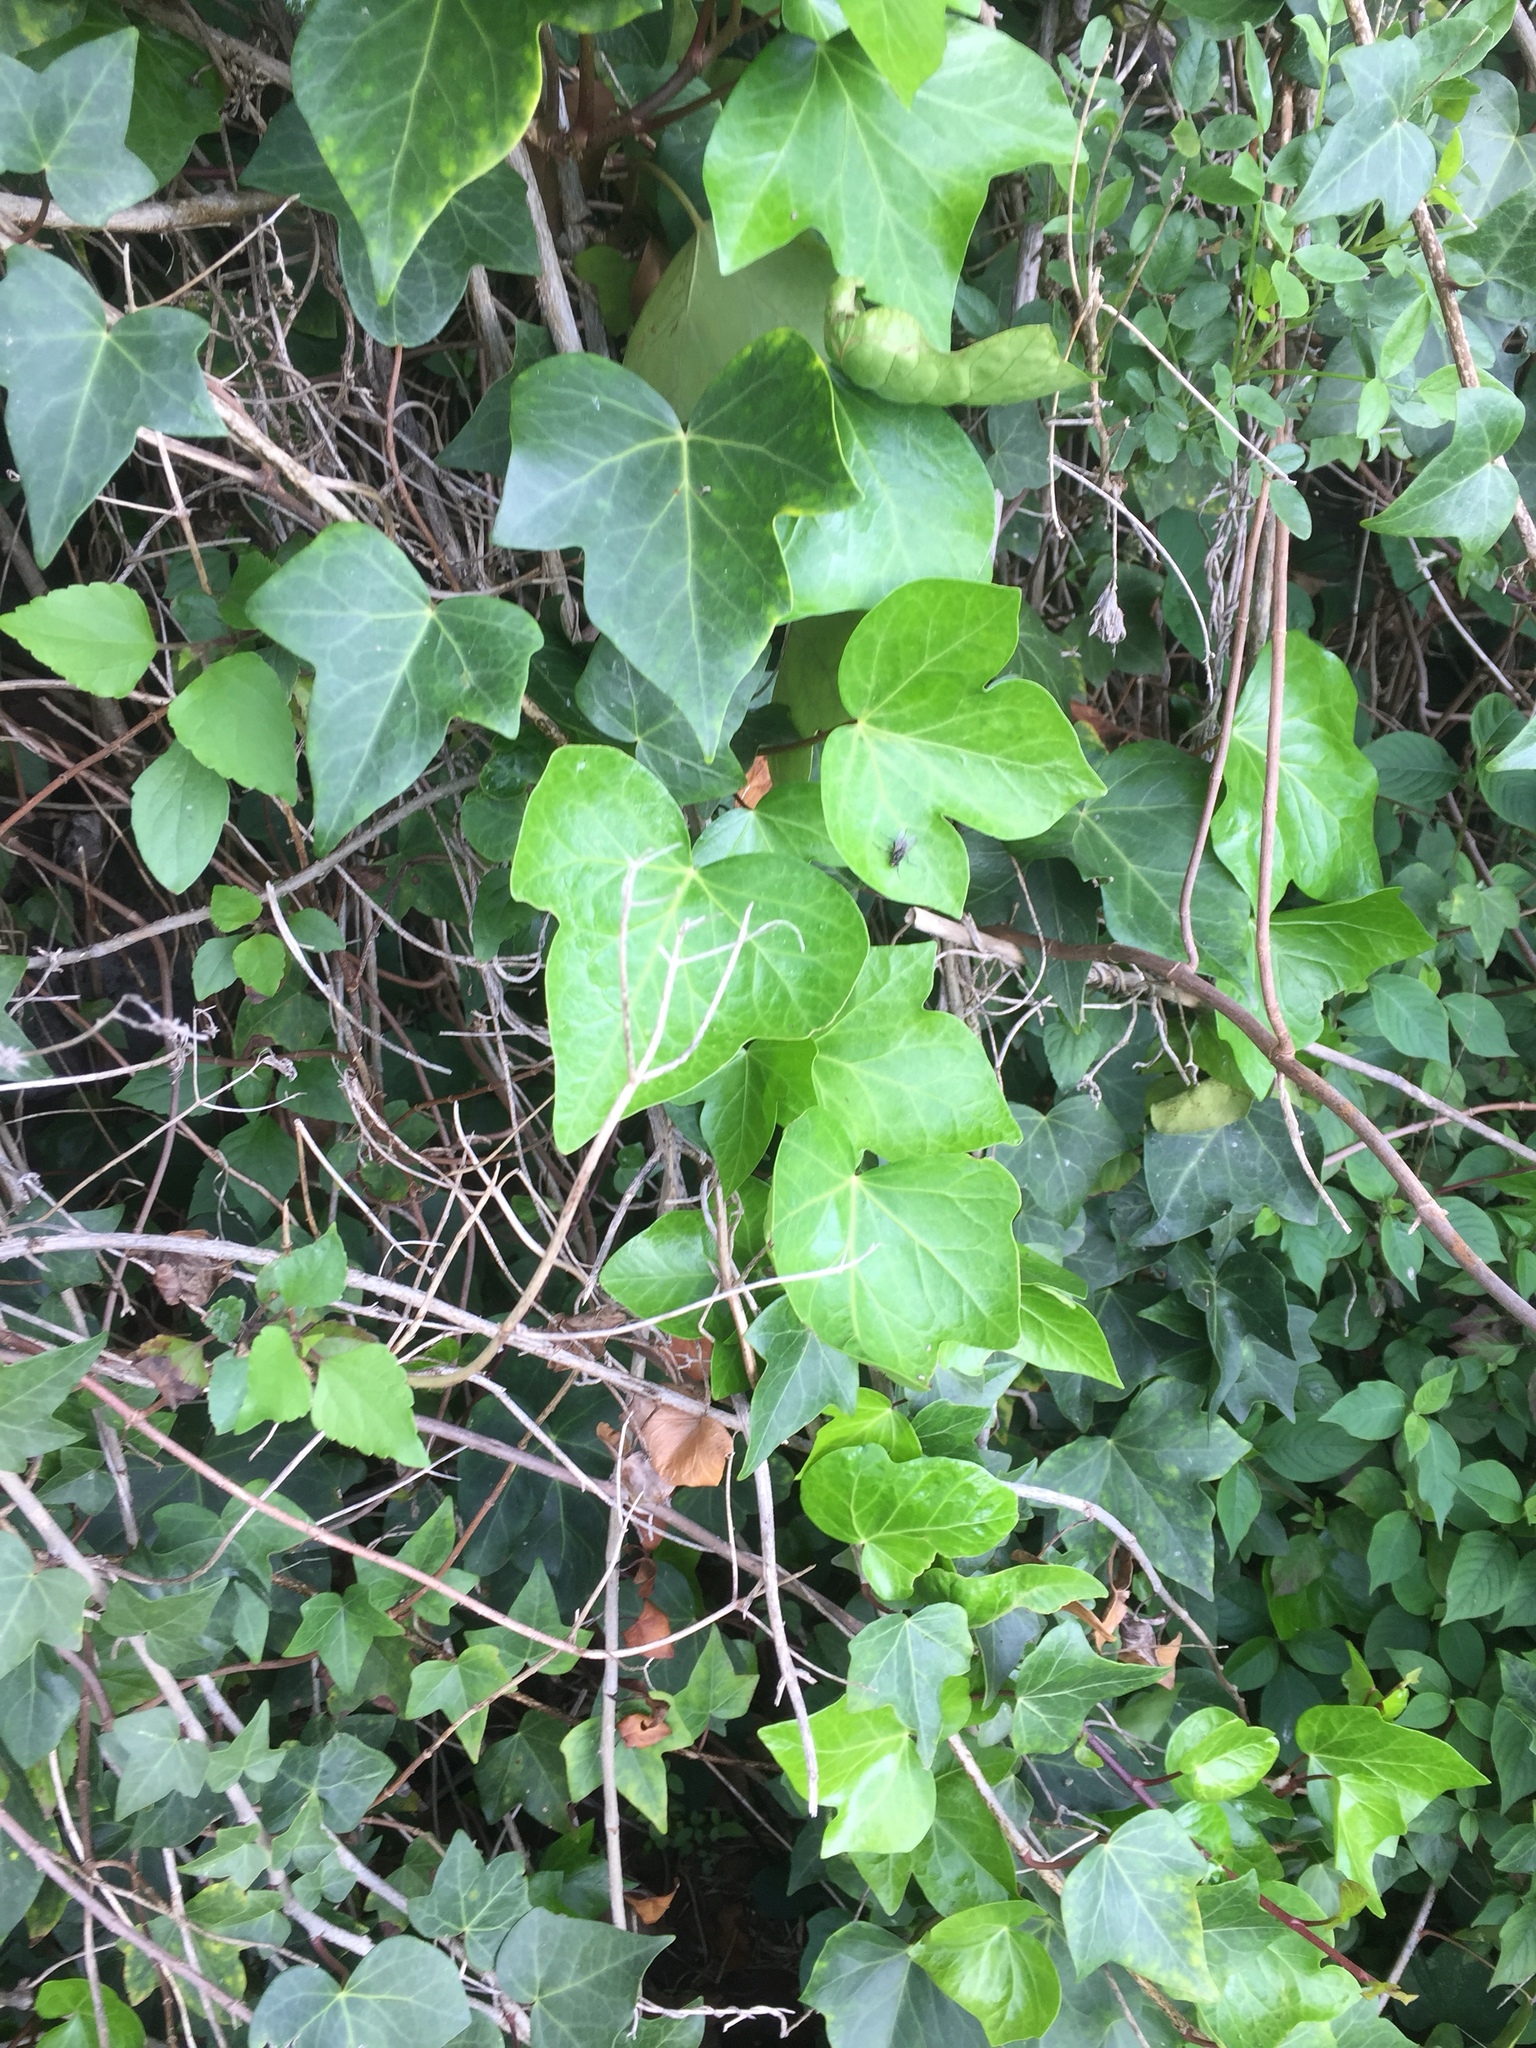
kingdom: Plantae
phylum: Tracheophyta
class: Magnoliopsida
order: Apiales
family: Araliaceae
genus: Hedera
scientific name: Hedera canariensis
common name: Madeira ivy
